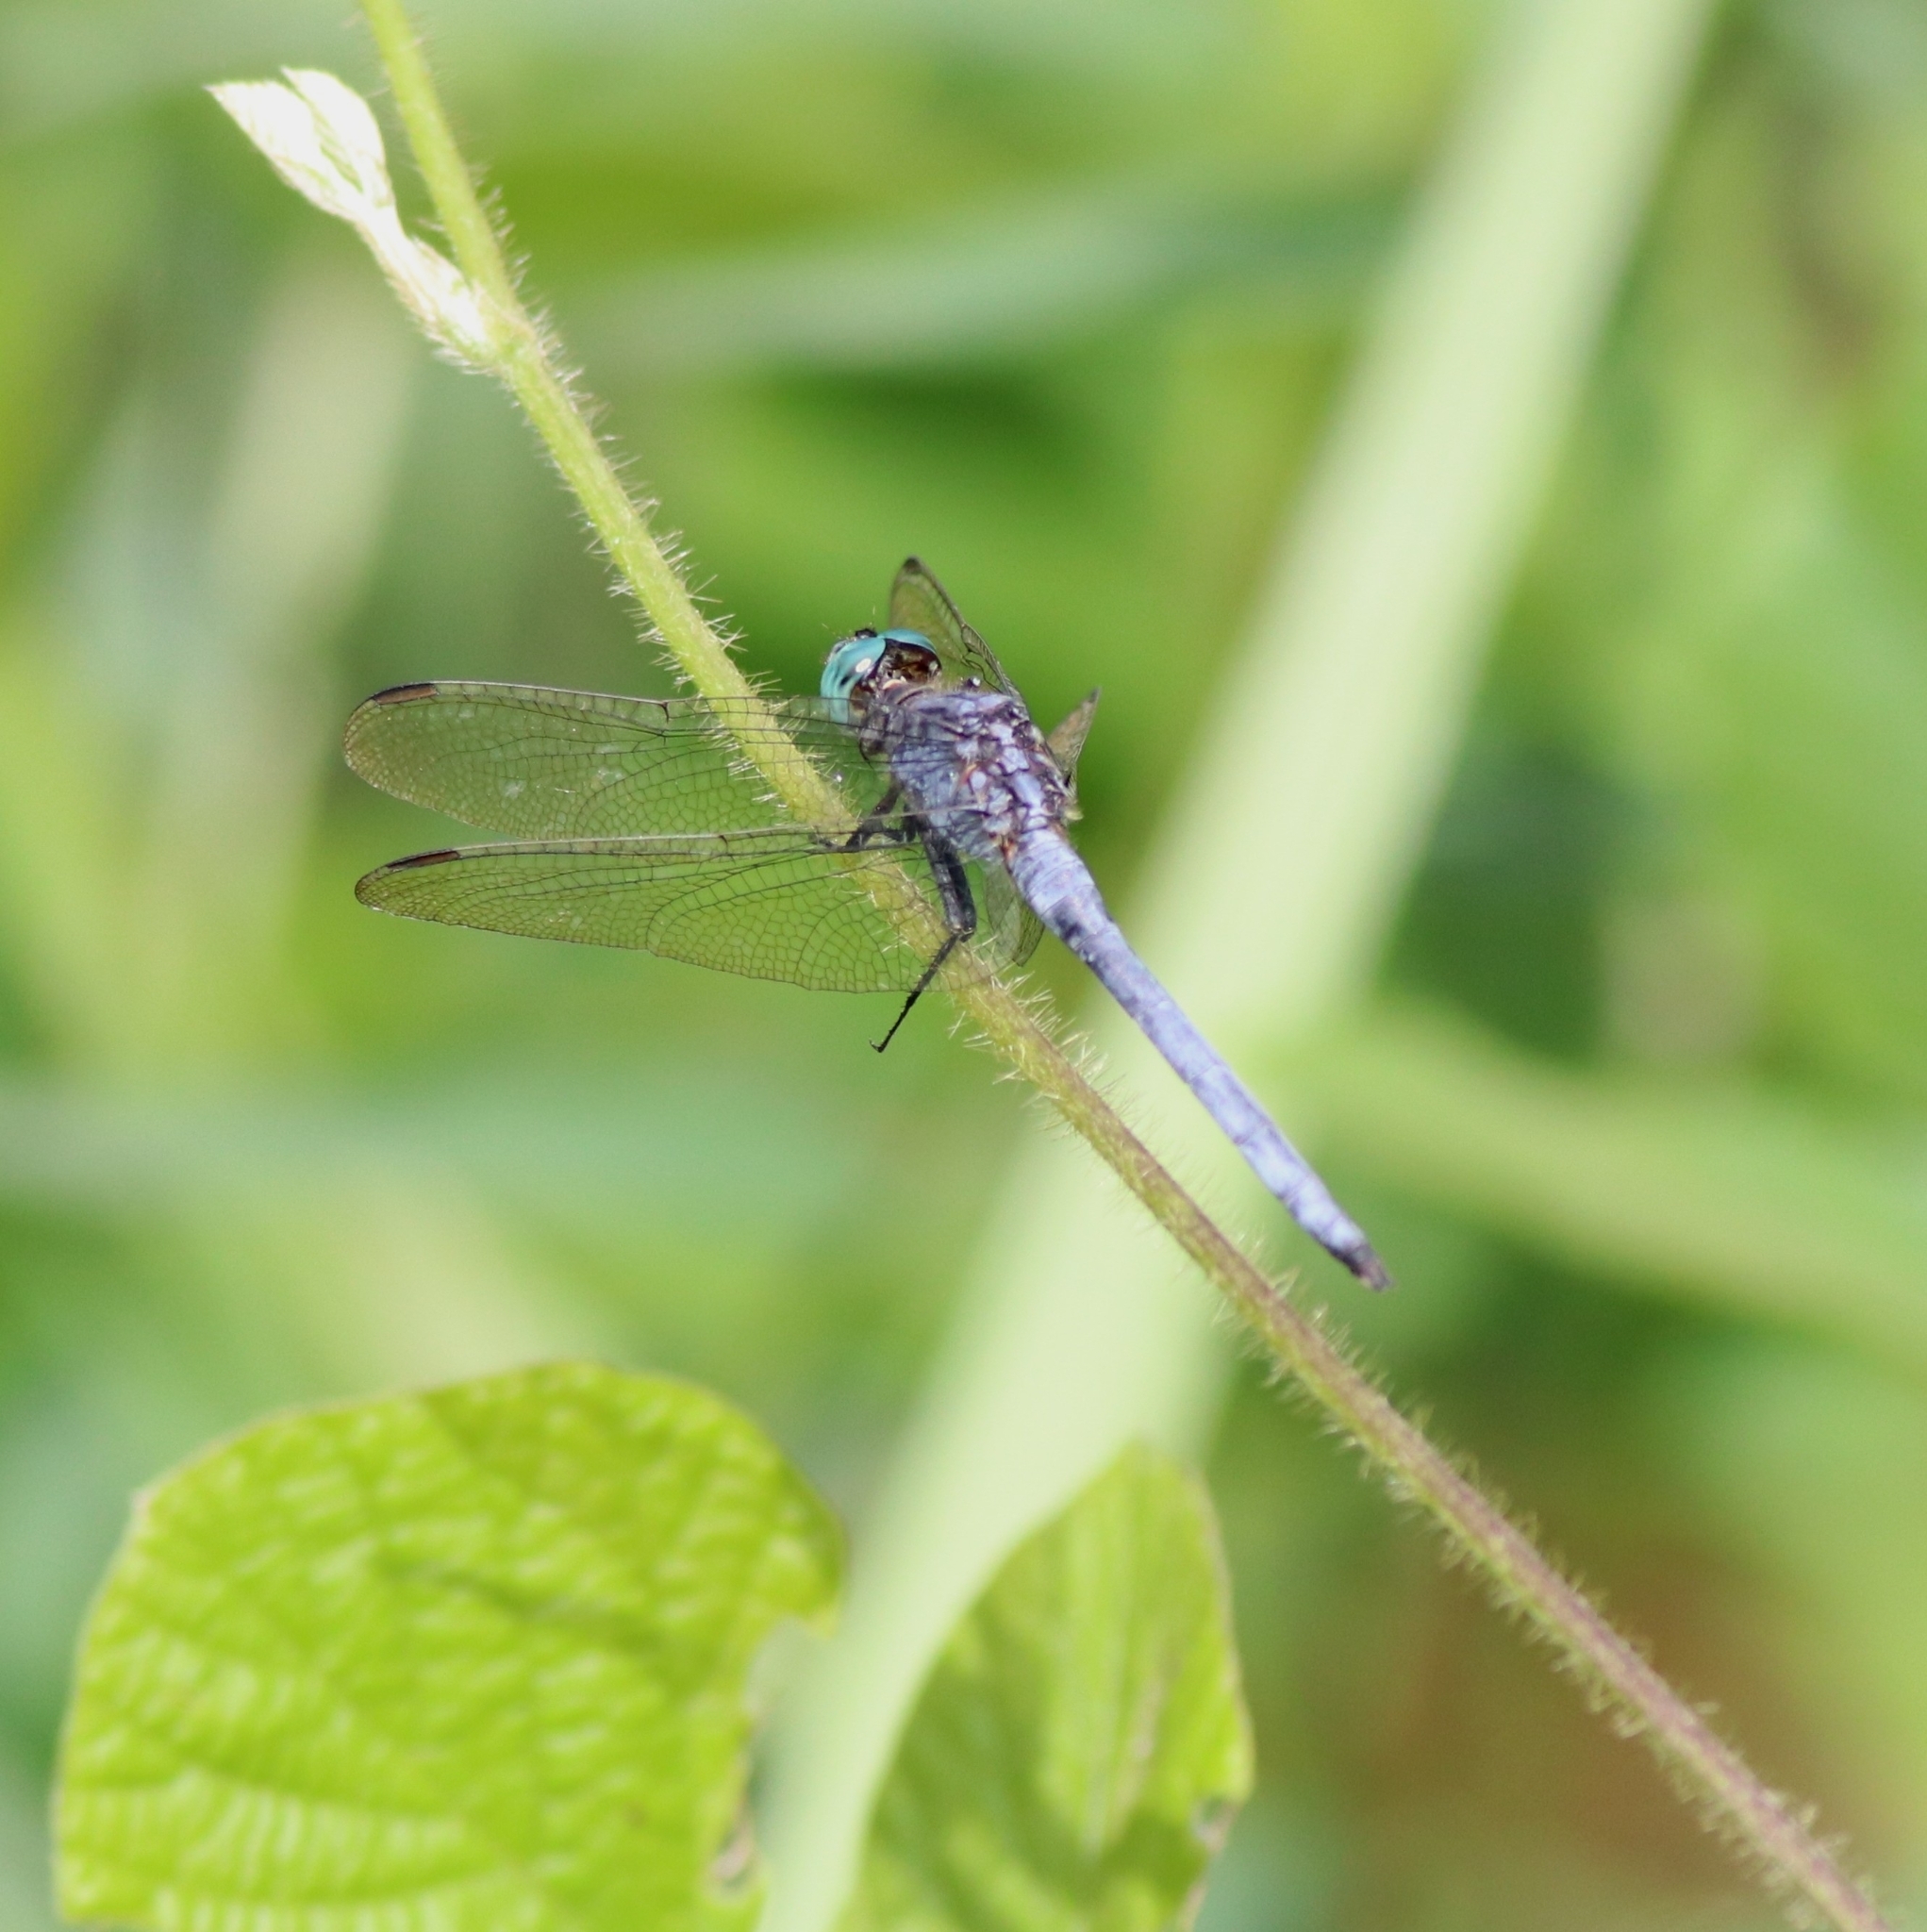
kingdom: Animalia
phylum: Arthropoda
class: Insecta
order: Odonata
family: Libellulidae
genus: Orthetrum
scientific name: Orthetrum luzonicum
